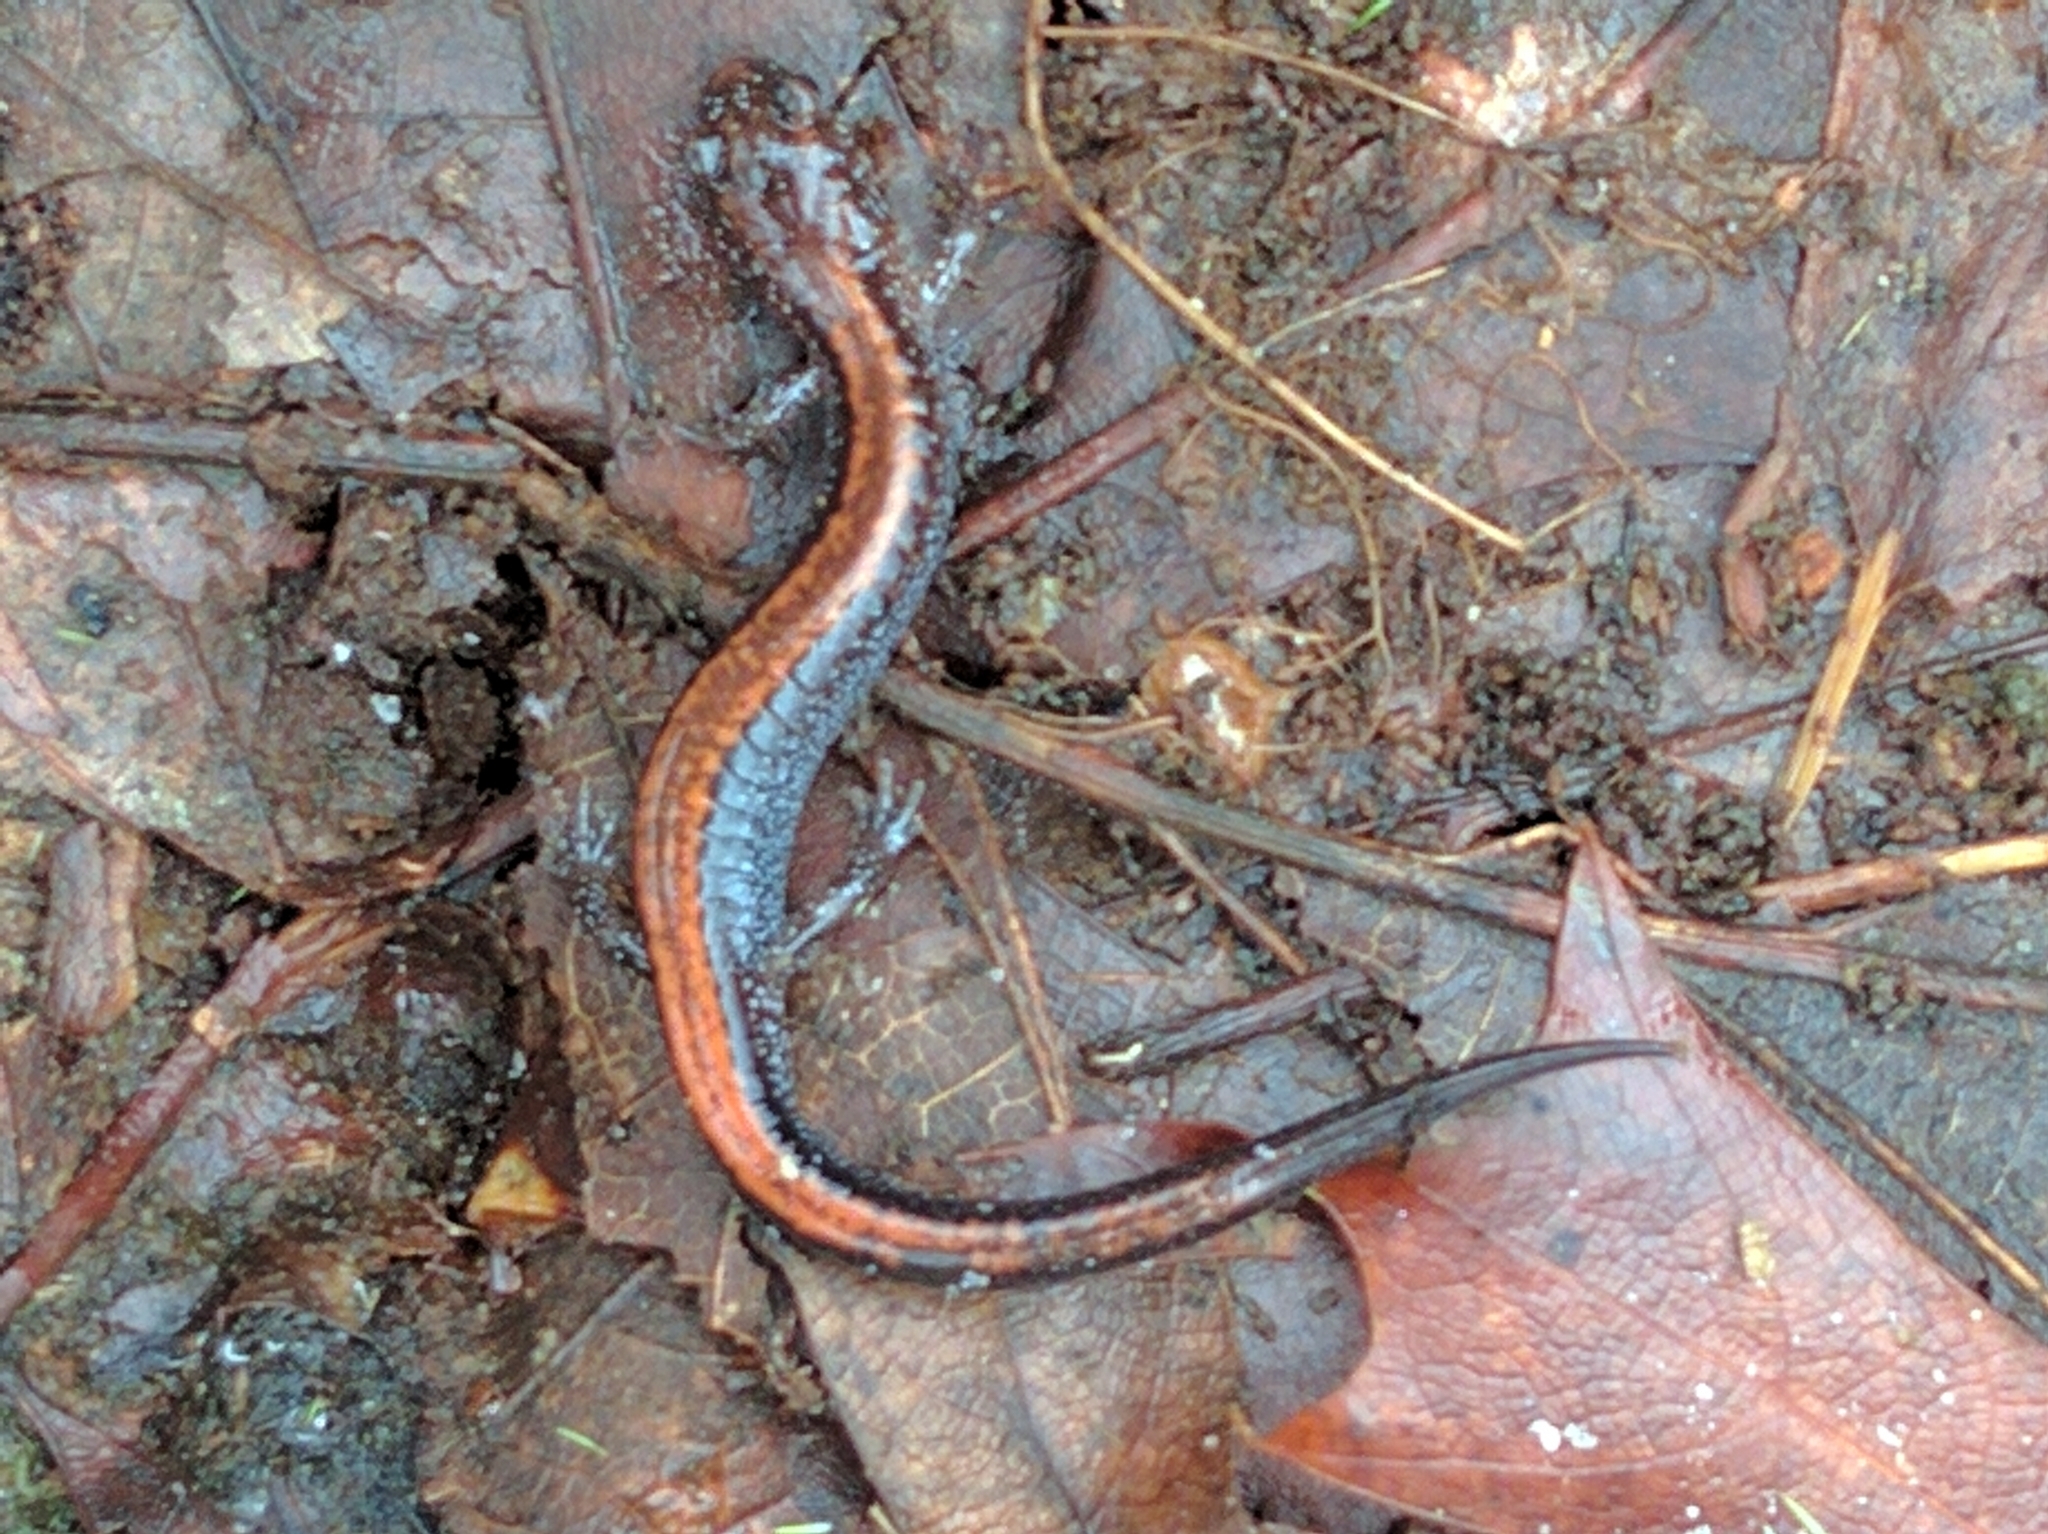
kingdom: Animalia
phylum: Chordata
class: Amphibia
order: Caudata
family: Plethodontidae
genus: Plethodon
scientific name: Plethodon cinereus
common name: Redback salamander
